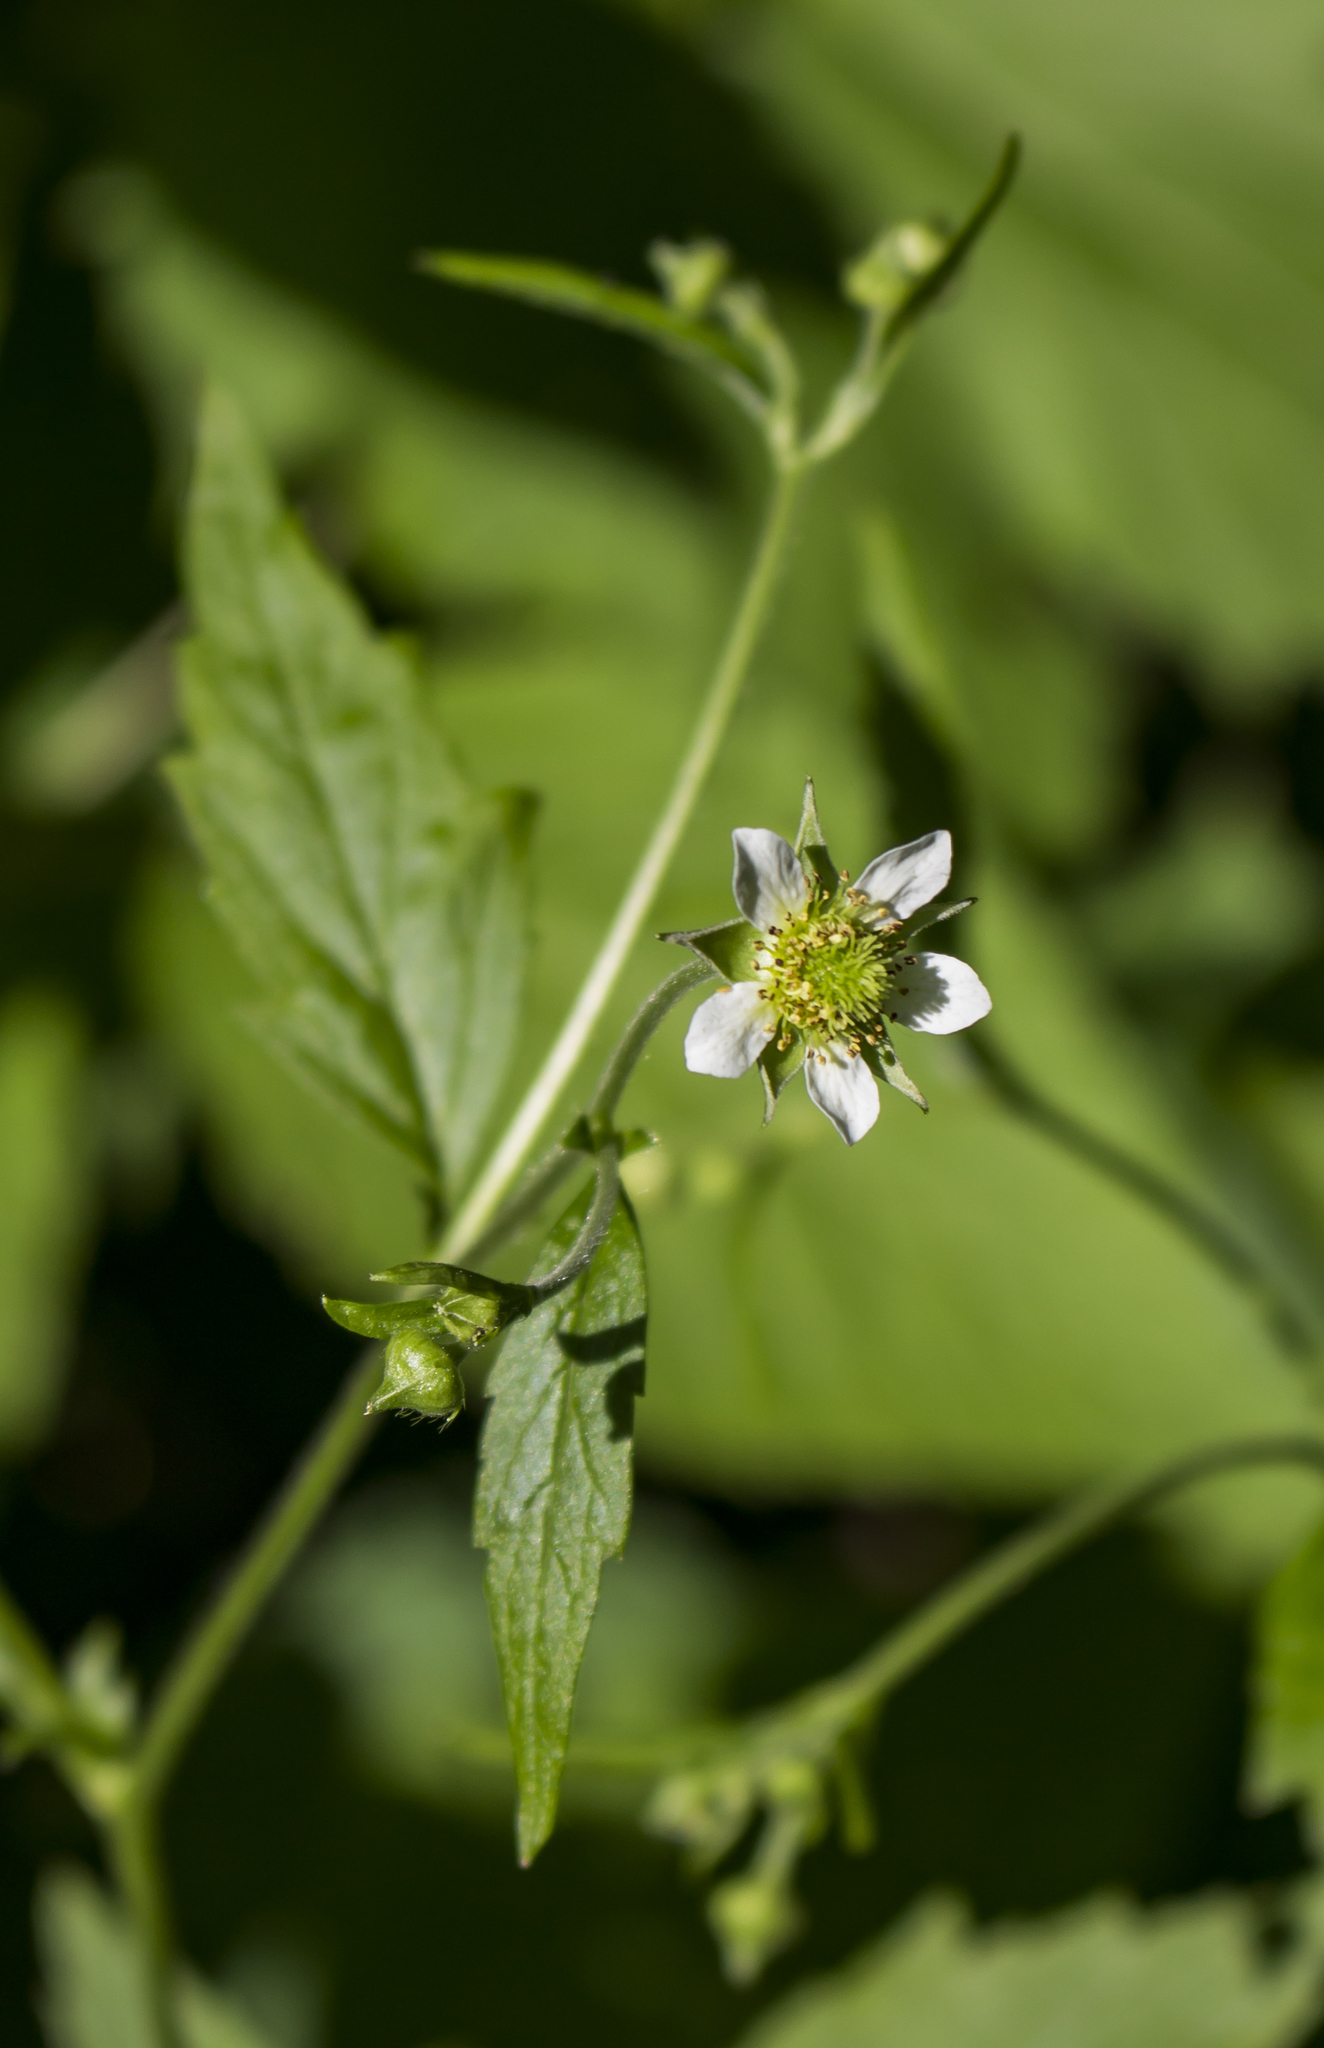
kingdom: Plantae
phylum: Tracheophyta
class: Magnoliopsida
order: Rosales
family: Rosaceae
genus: Geum
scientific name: Geum canadense
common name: White avens
